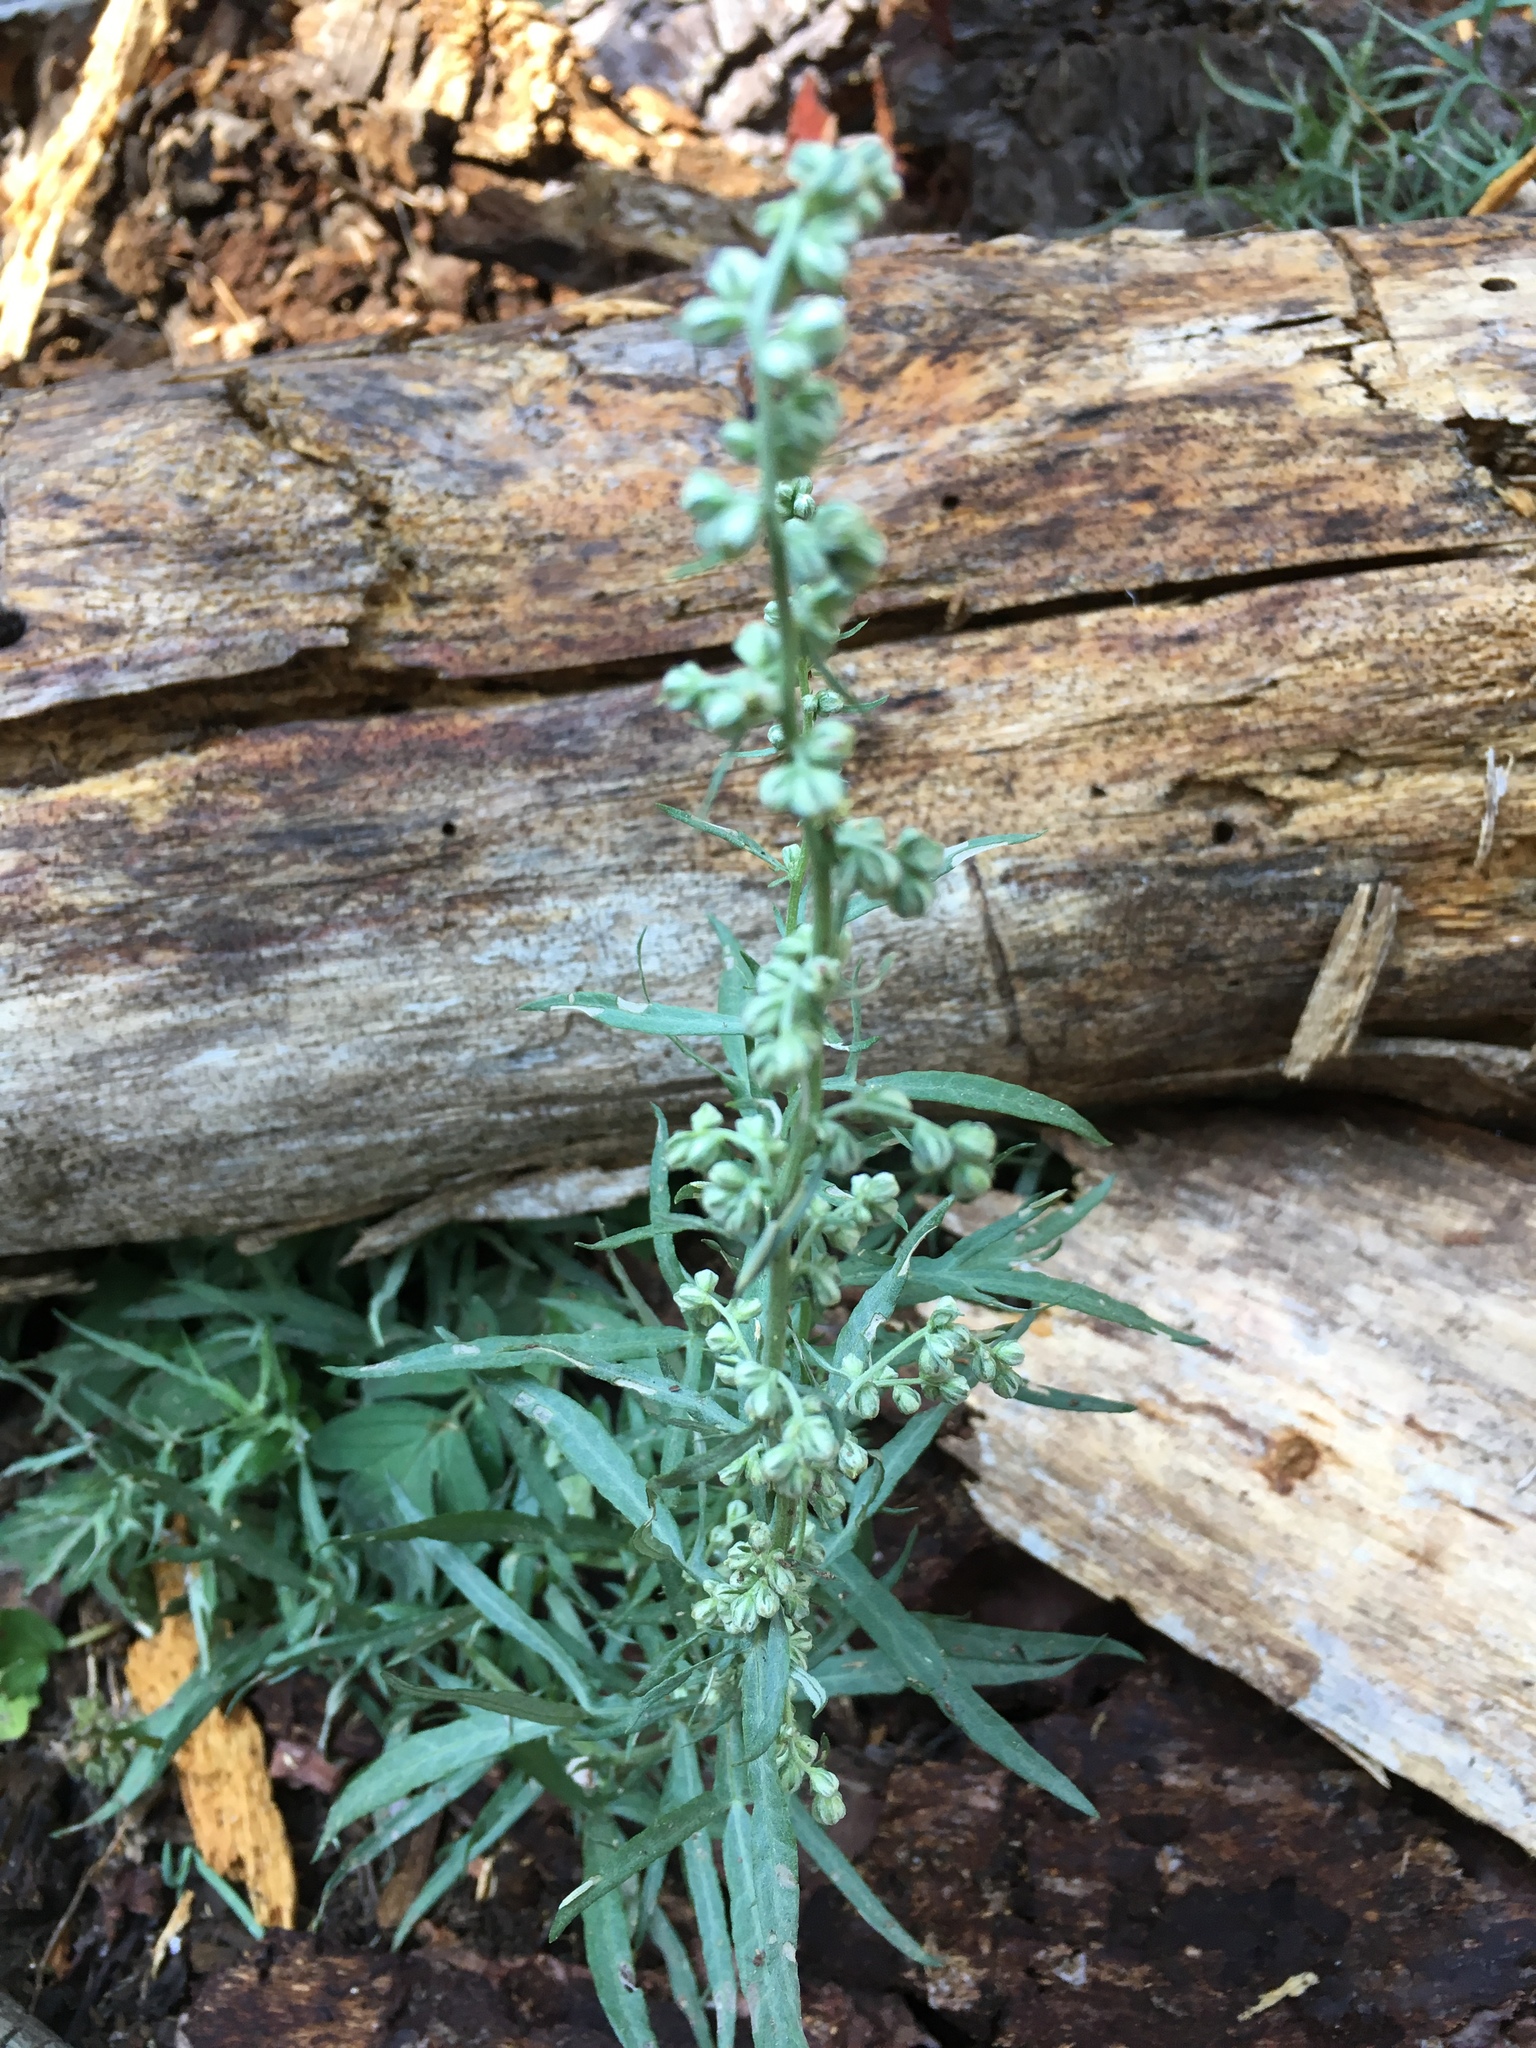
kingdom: Plantae
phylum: Tracheophyta
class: Magnoliopsida
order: Asterales
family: Asteraceae
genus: Artemisia
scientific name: Artemisia ludoviciana
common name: Western mugwort
